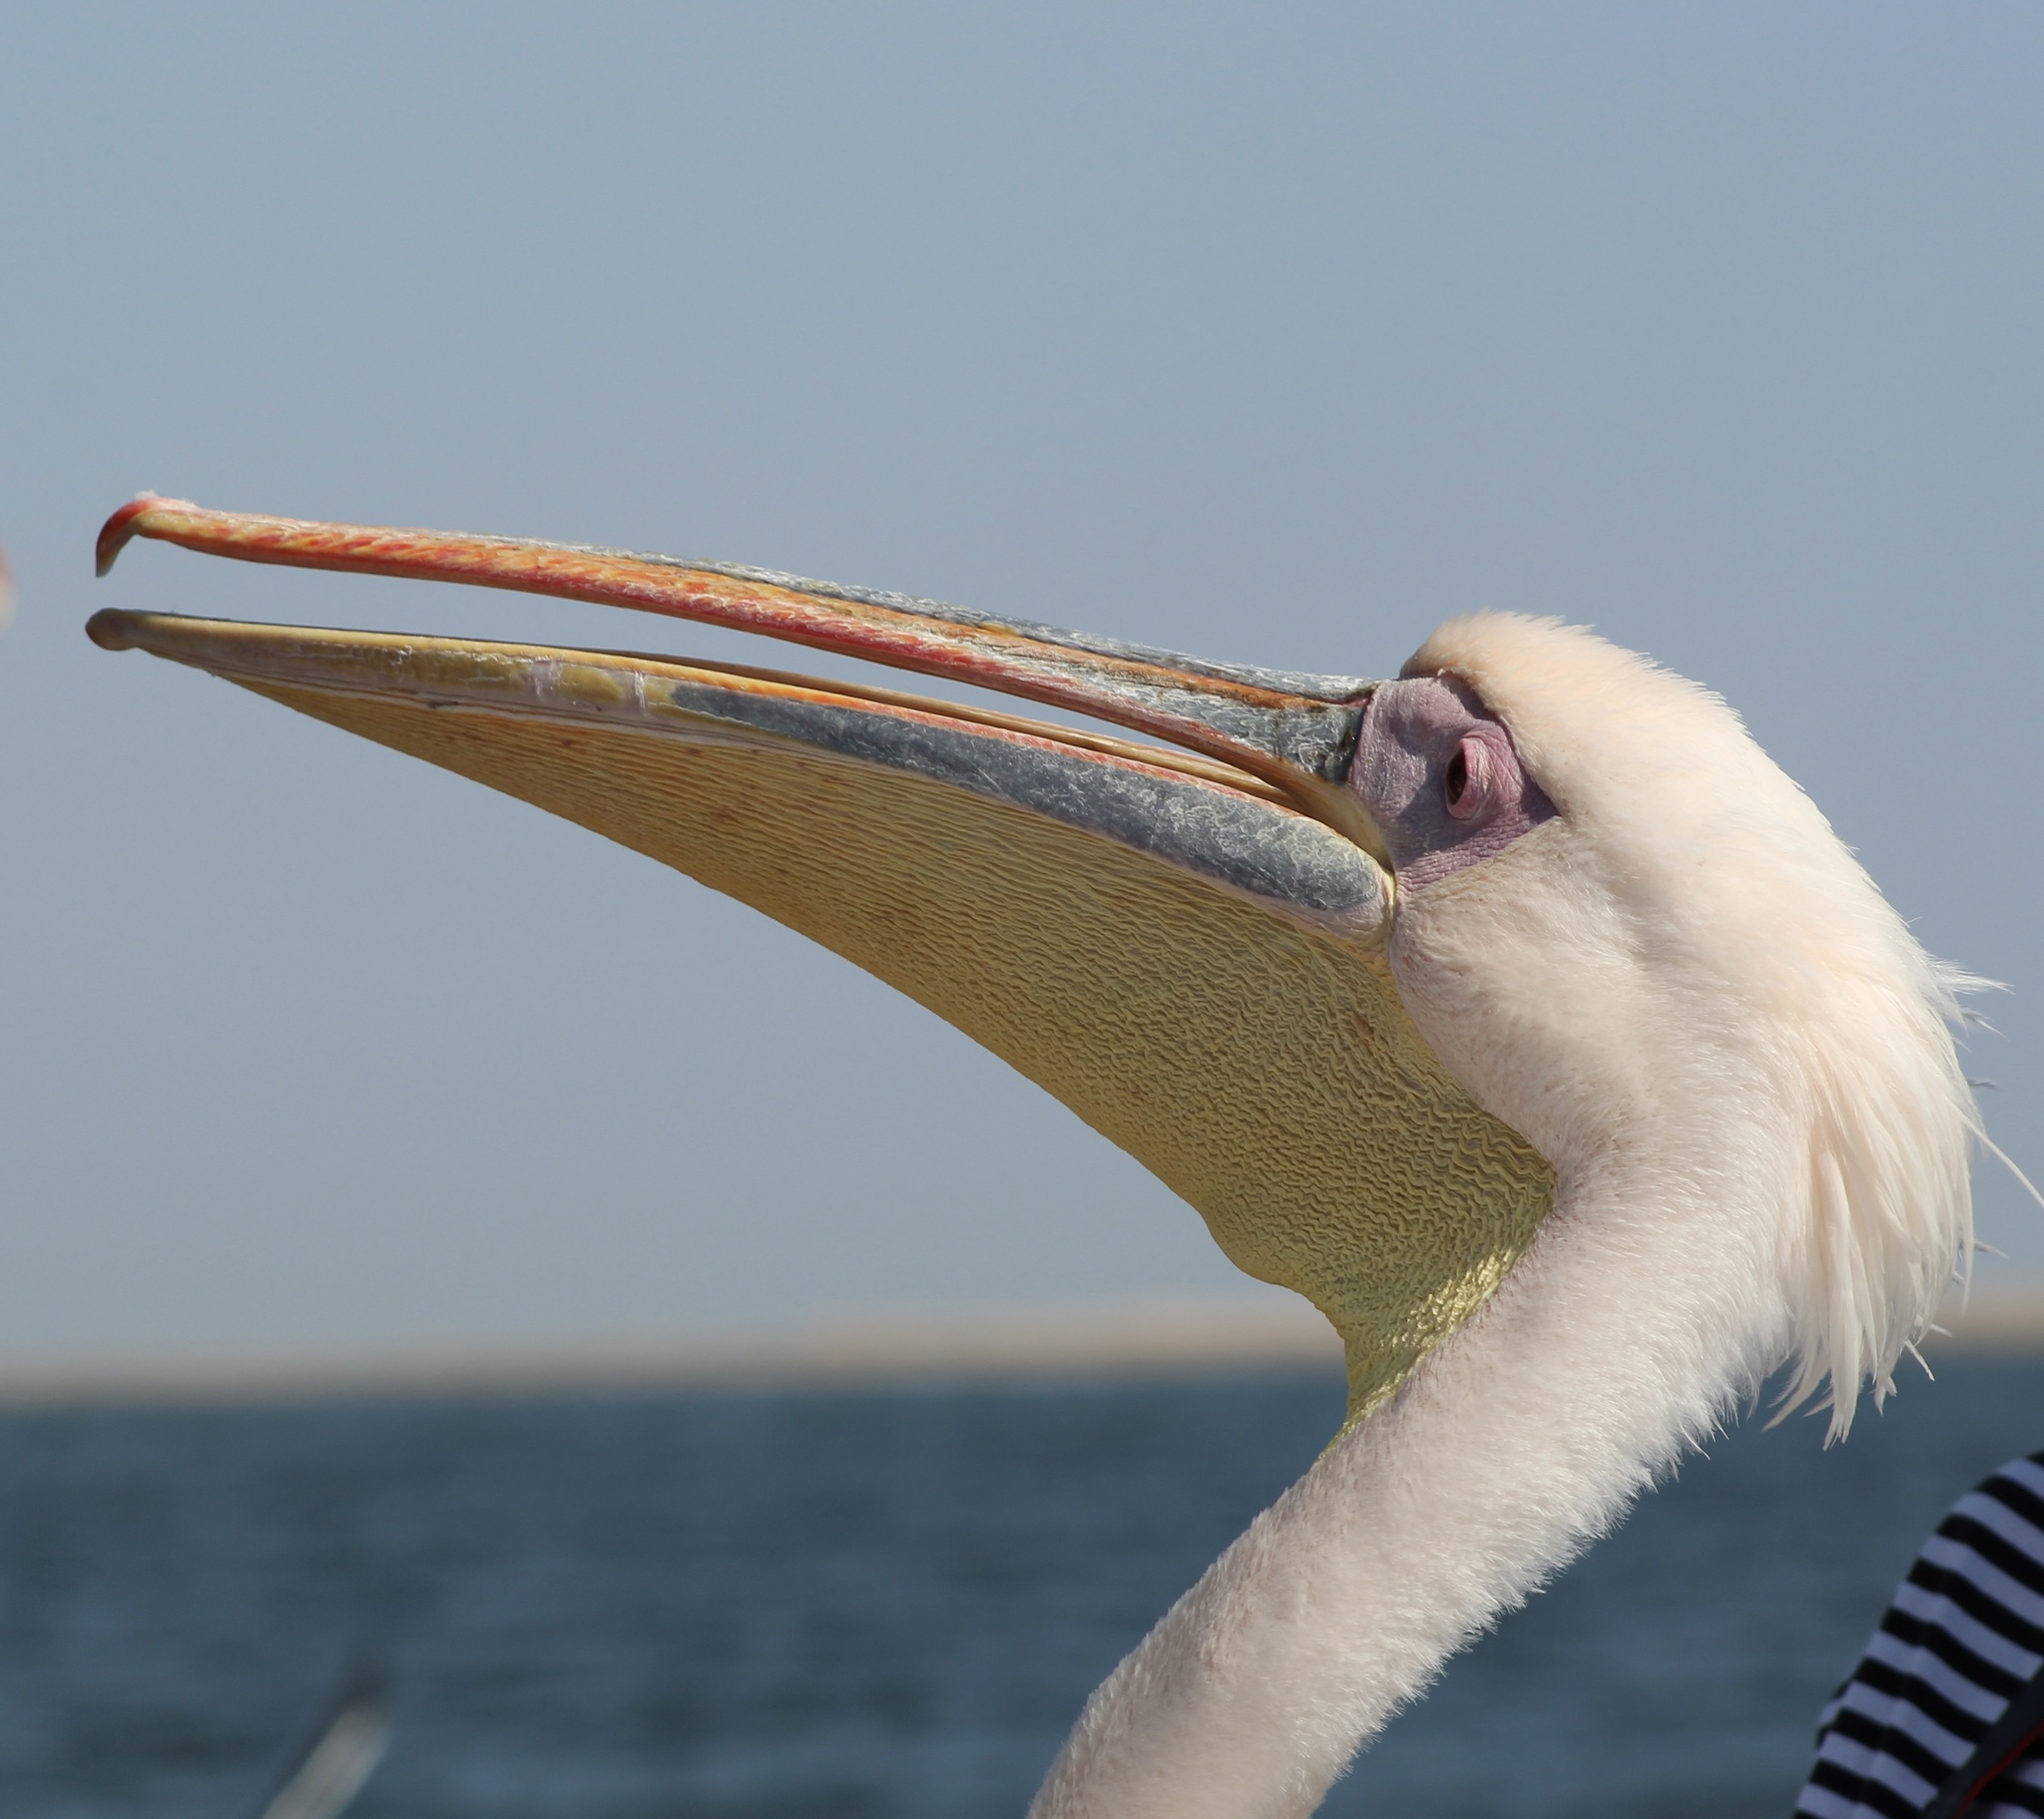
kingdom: Animalia
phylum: Chordata
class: Aves
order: Pelecaniformes
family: Pelecanidae
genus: Pelecanus
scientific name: Pelecanus onocrotalus
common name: Great white pelican
